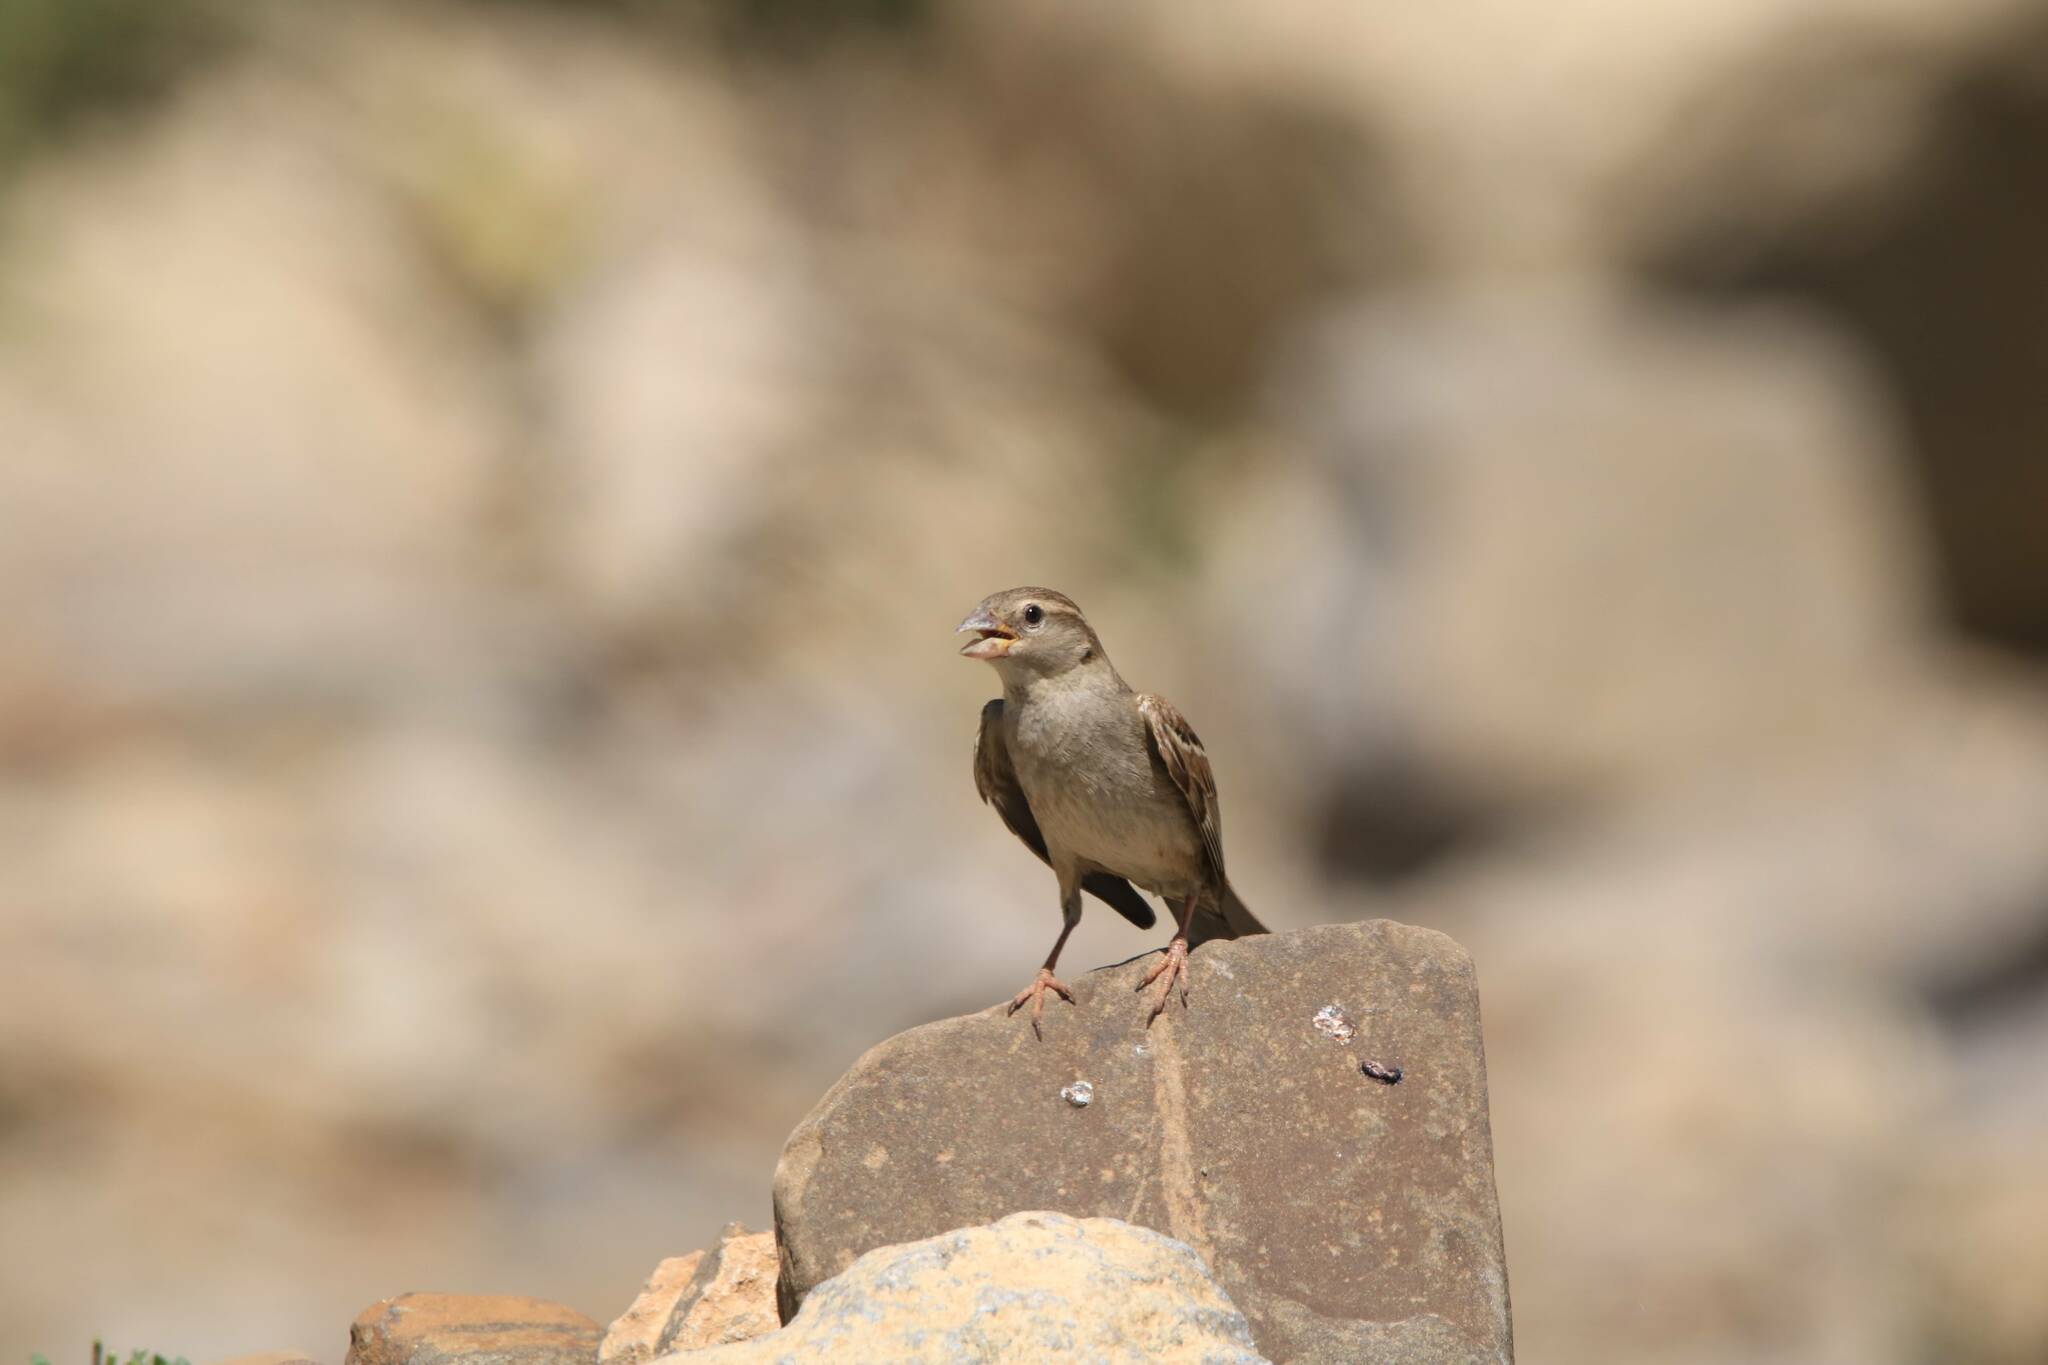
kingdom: Animalia
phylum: Chordata
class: Aves
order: Passeriformes
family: Passeridae
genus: Passer
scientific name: Passer hispaniolensis
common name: Spanish sparrow
